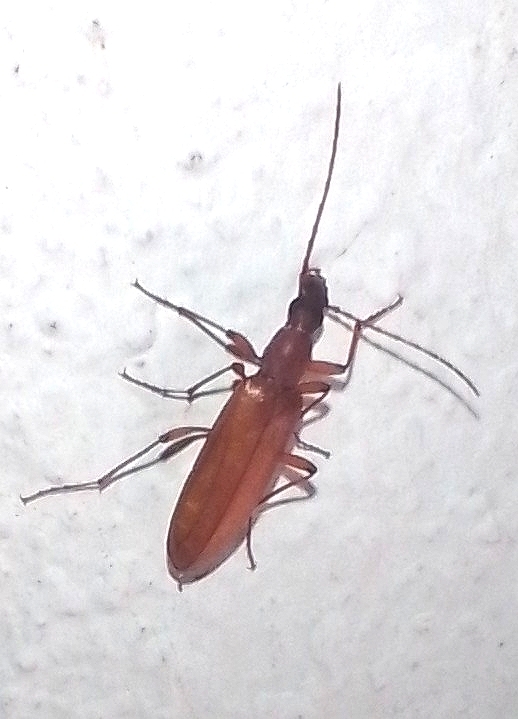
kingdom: Animalia
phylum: Arthropoda
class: Insecta
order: Coleoptera
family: Tenebrionidae
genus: Aryenis
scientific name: Aryenis
